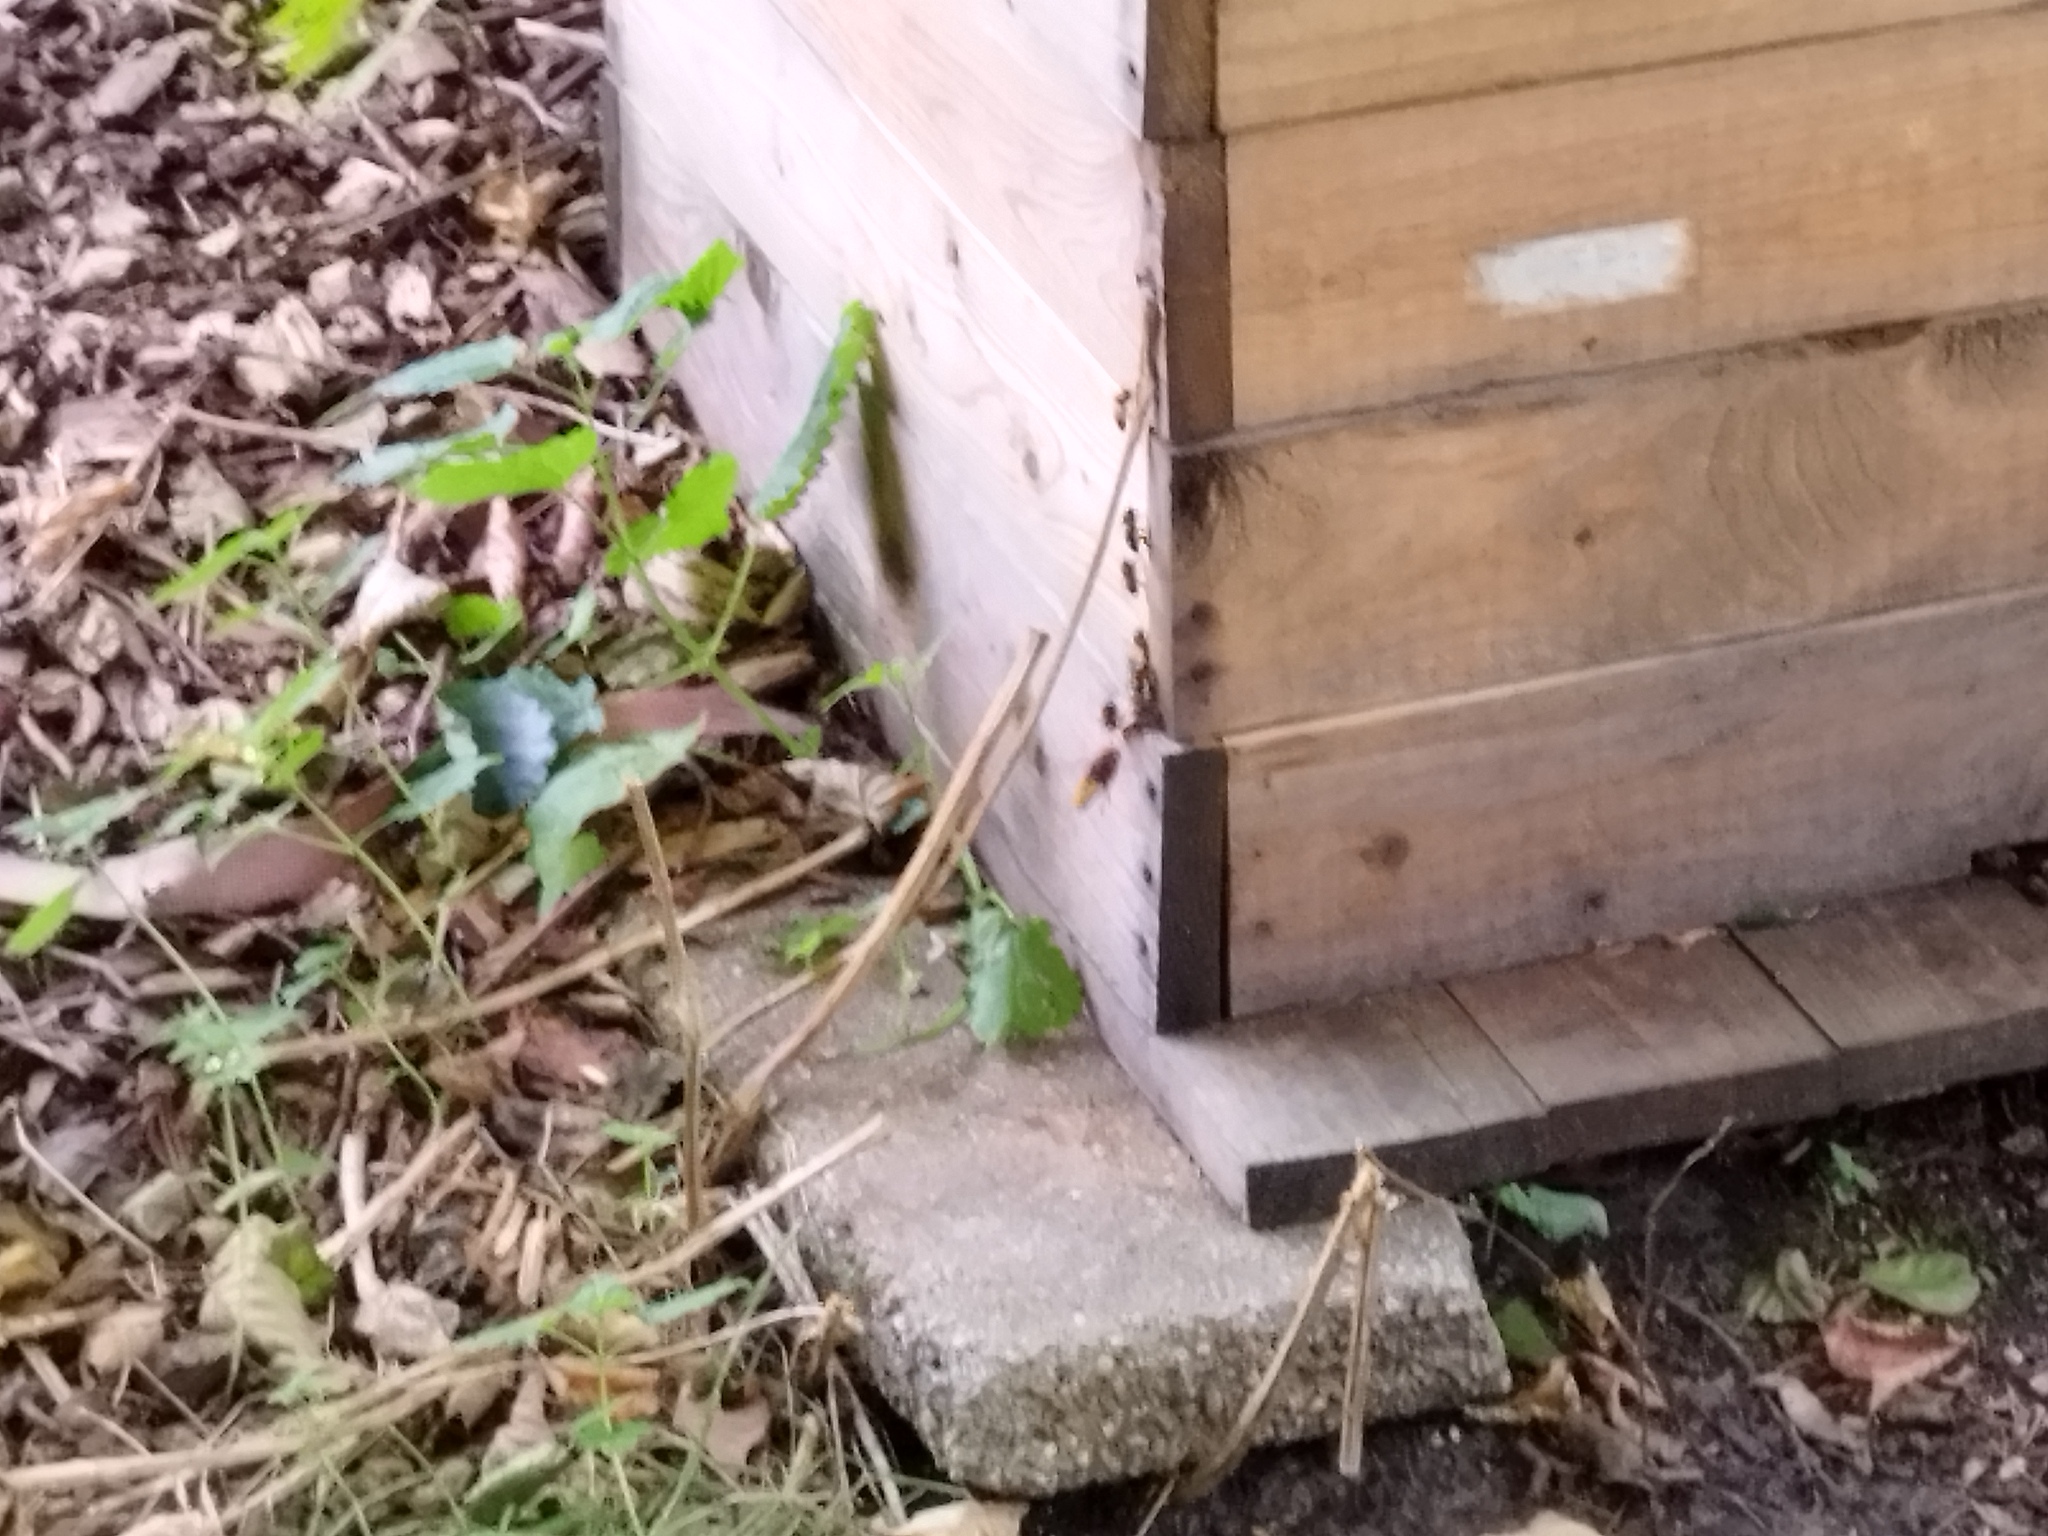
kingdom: Animalia
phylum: Arthropoda
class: Insecta
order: Hymenoptera
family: Vespidae
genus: Vespa
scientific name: Vespa crabro
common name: Hornet
